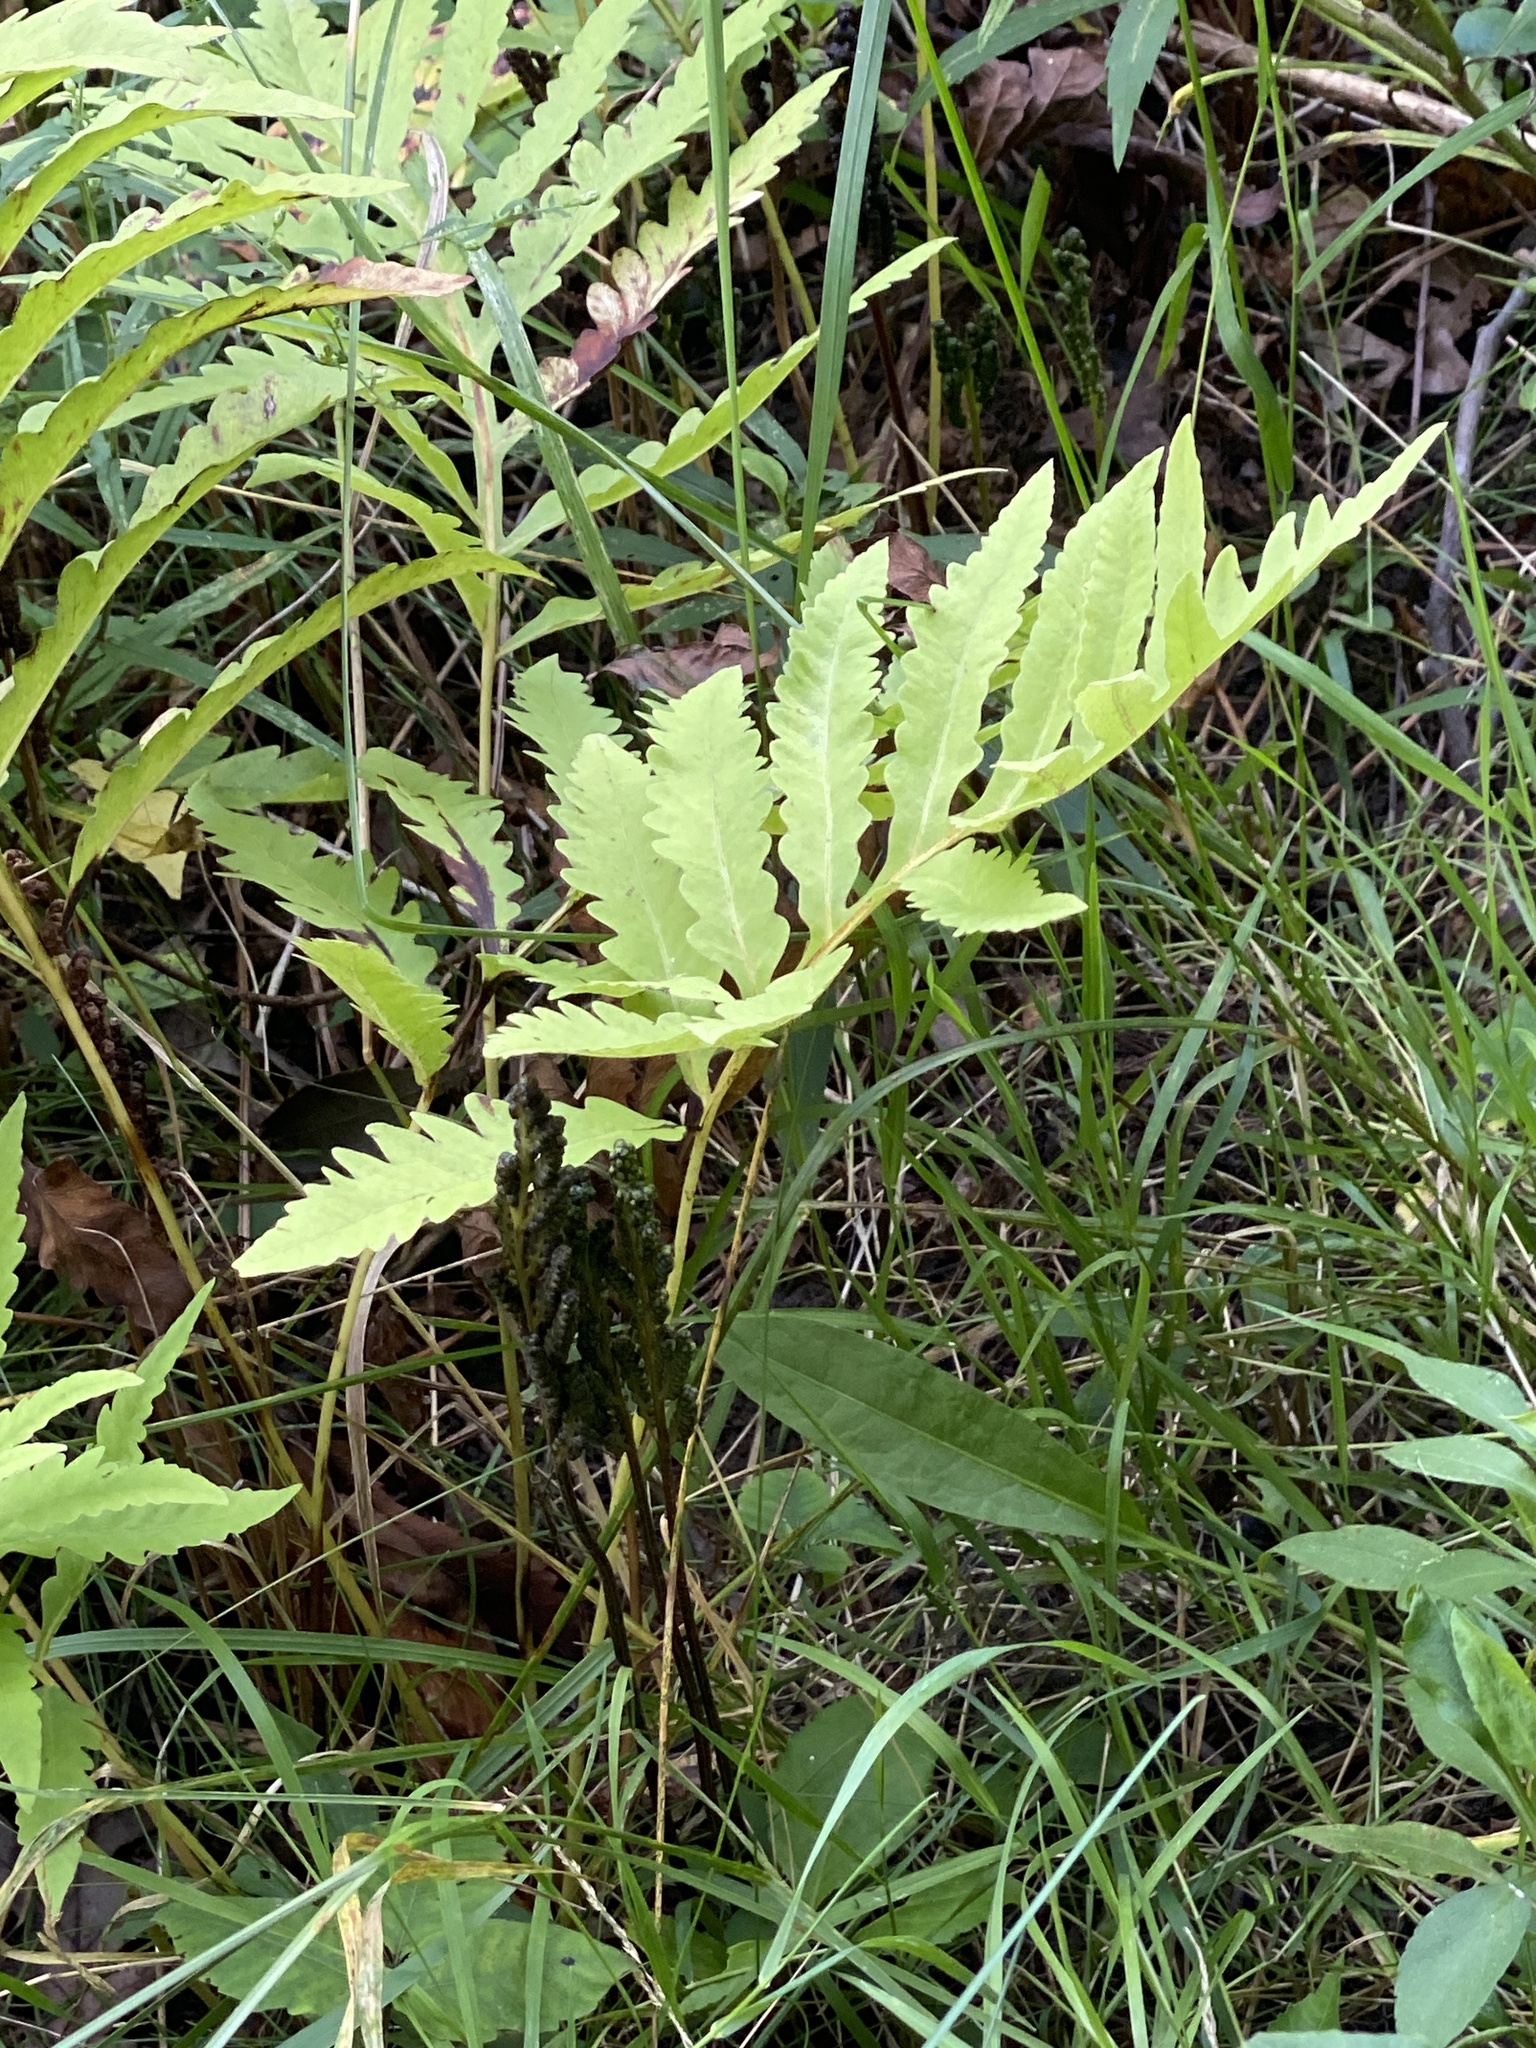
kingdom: Plantae
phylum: Tracheophyta
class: Polypodiopsida
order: Polypodiales
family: Onocleaceae
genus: Onoclea
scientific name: Onoclea sensibilis
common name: Sensitive fern
